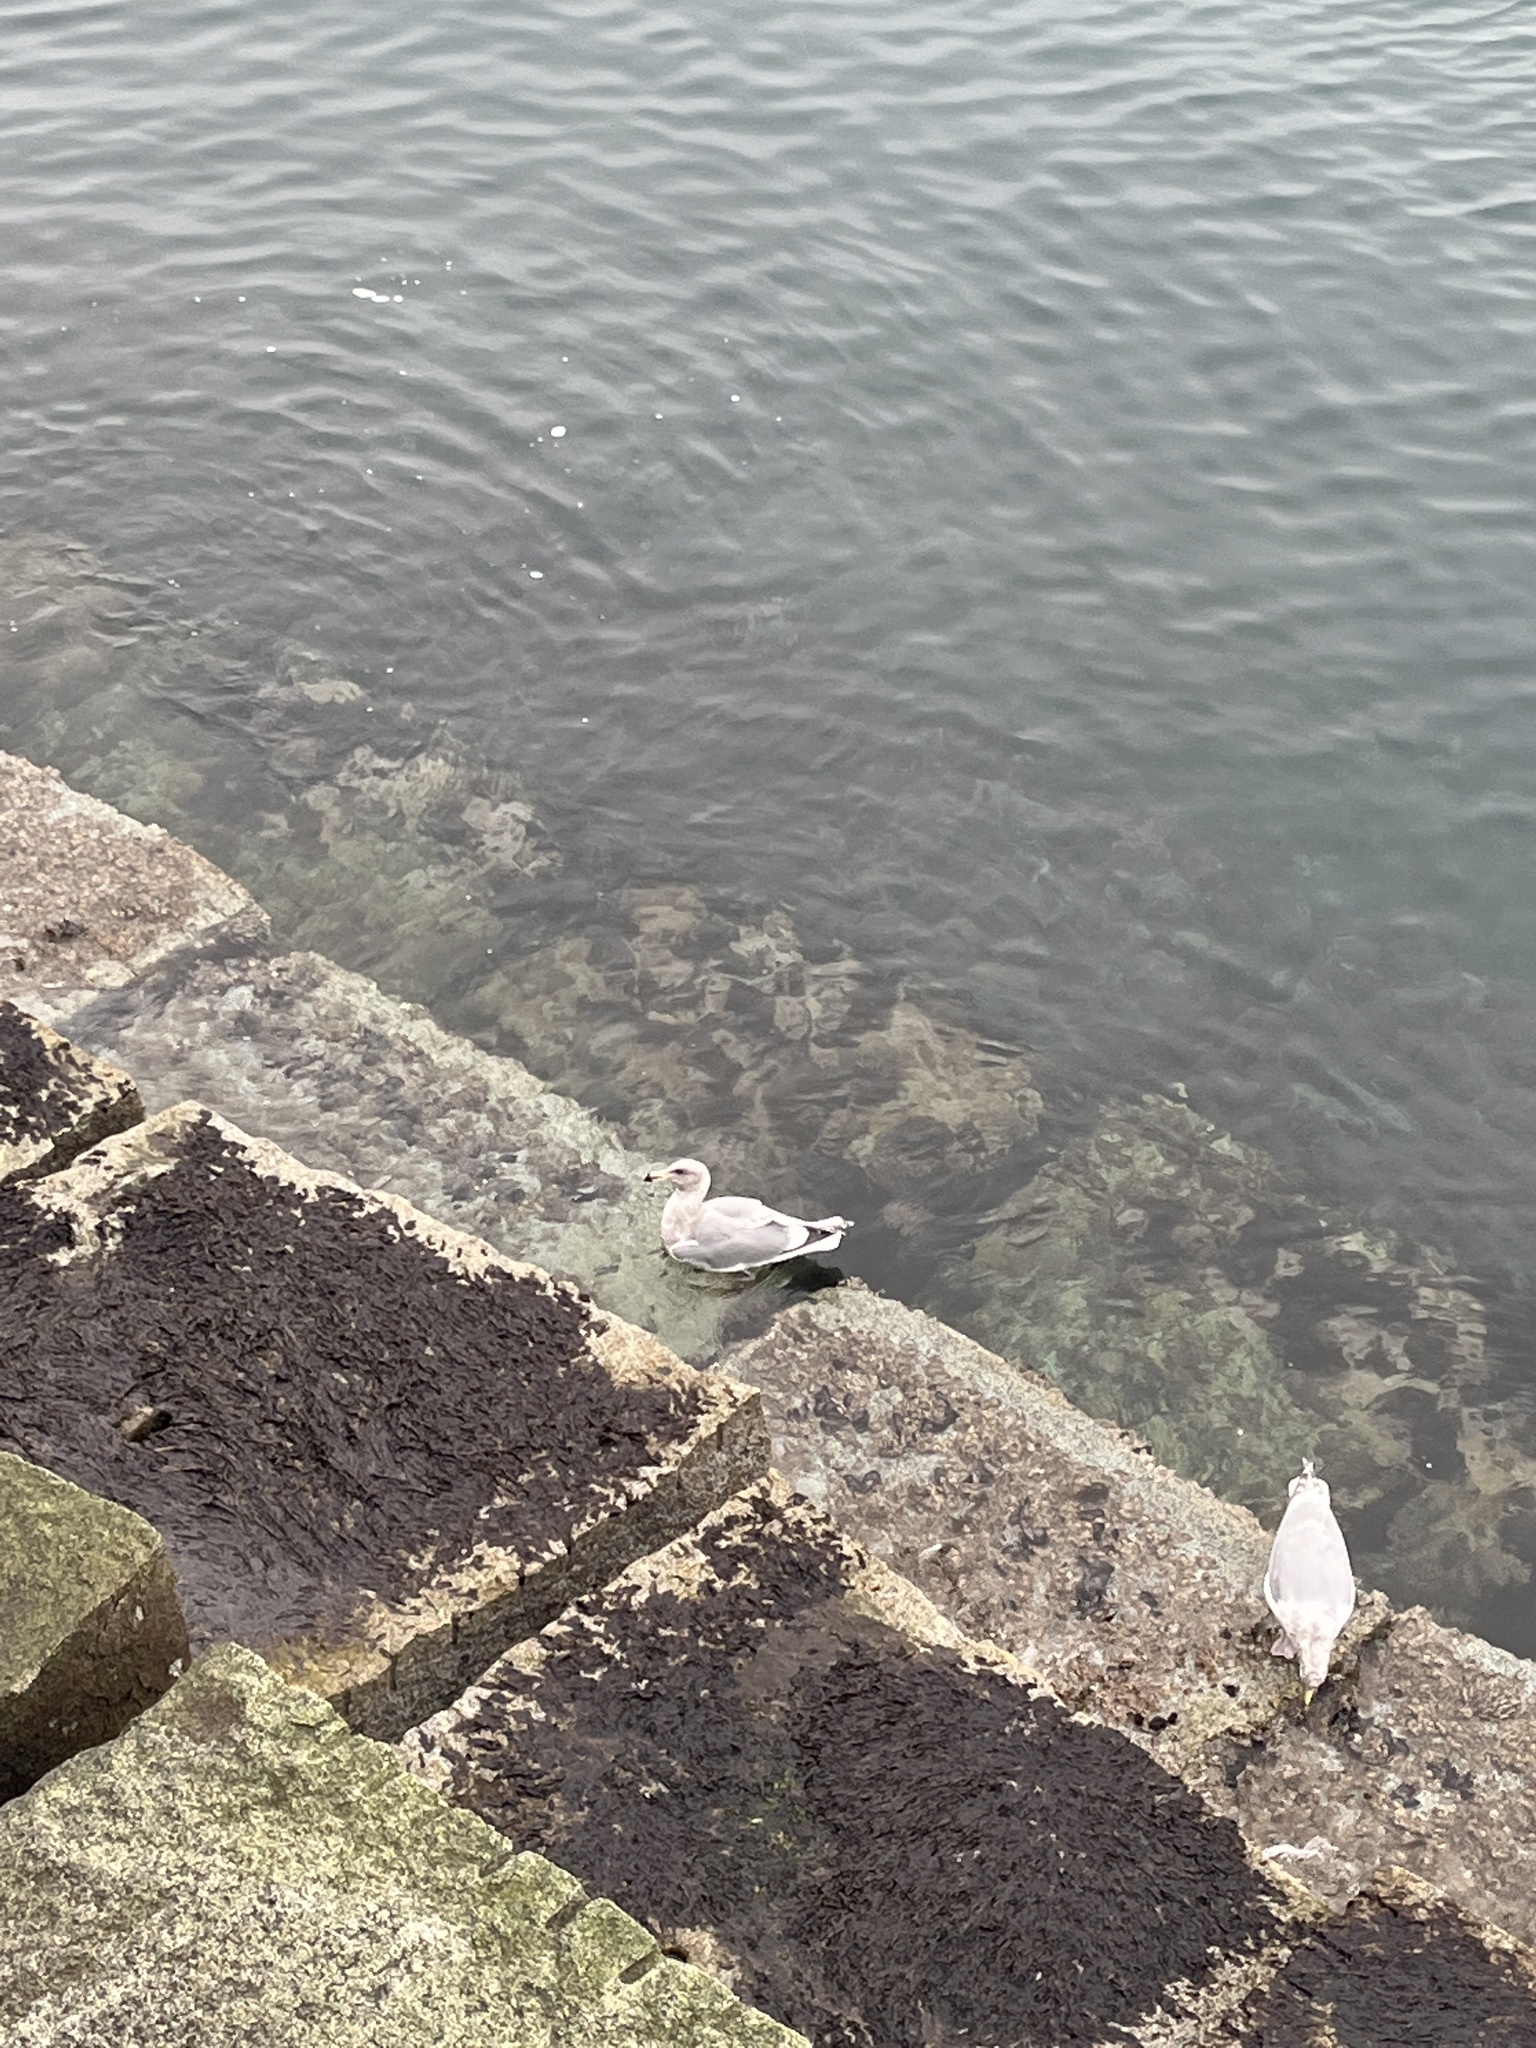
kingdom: Animalia
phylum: Chordata
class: Aves
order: Charadriiformes
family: Laridae
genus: Larus
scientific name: Larus glaucescens
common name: Glaucous-winged gull
